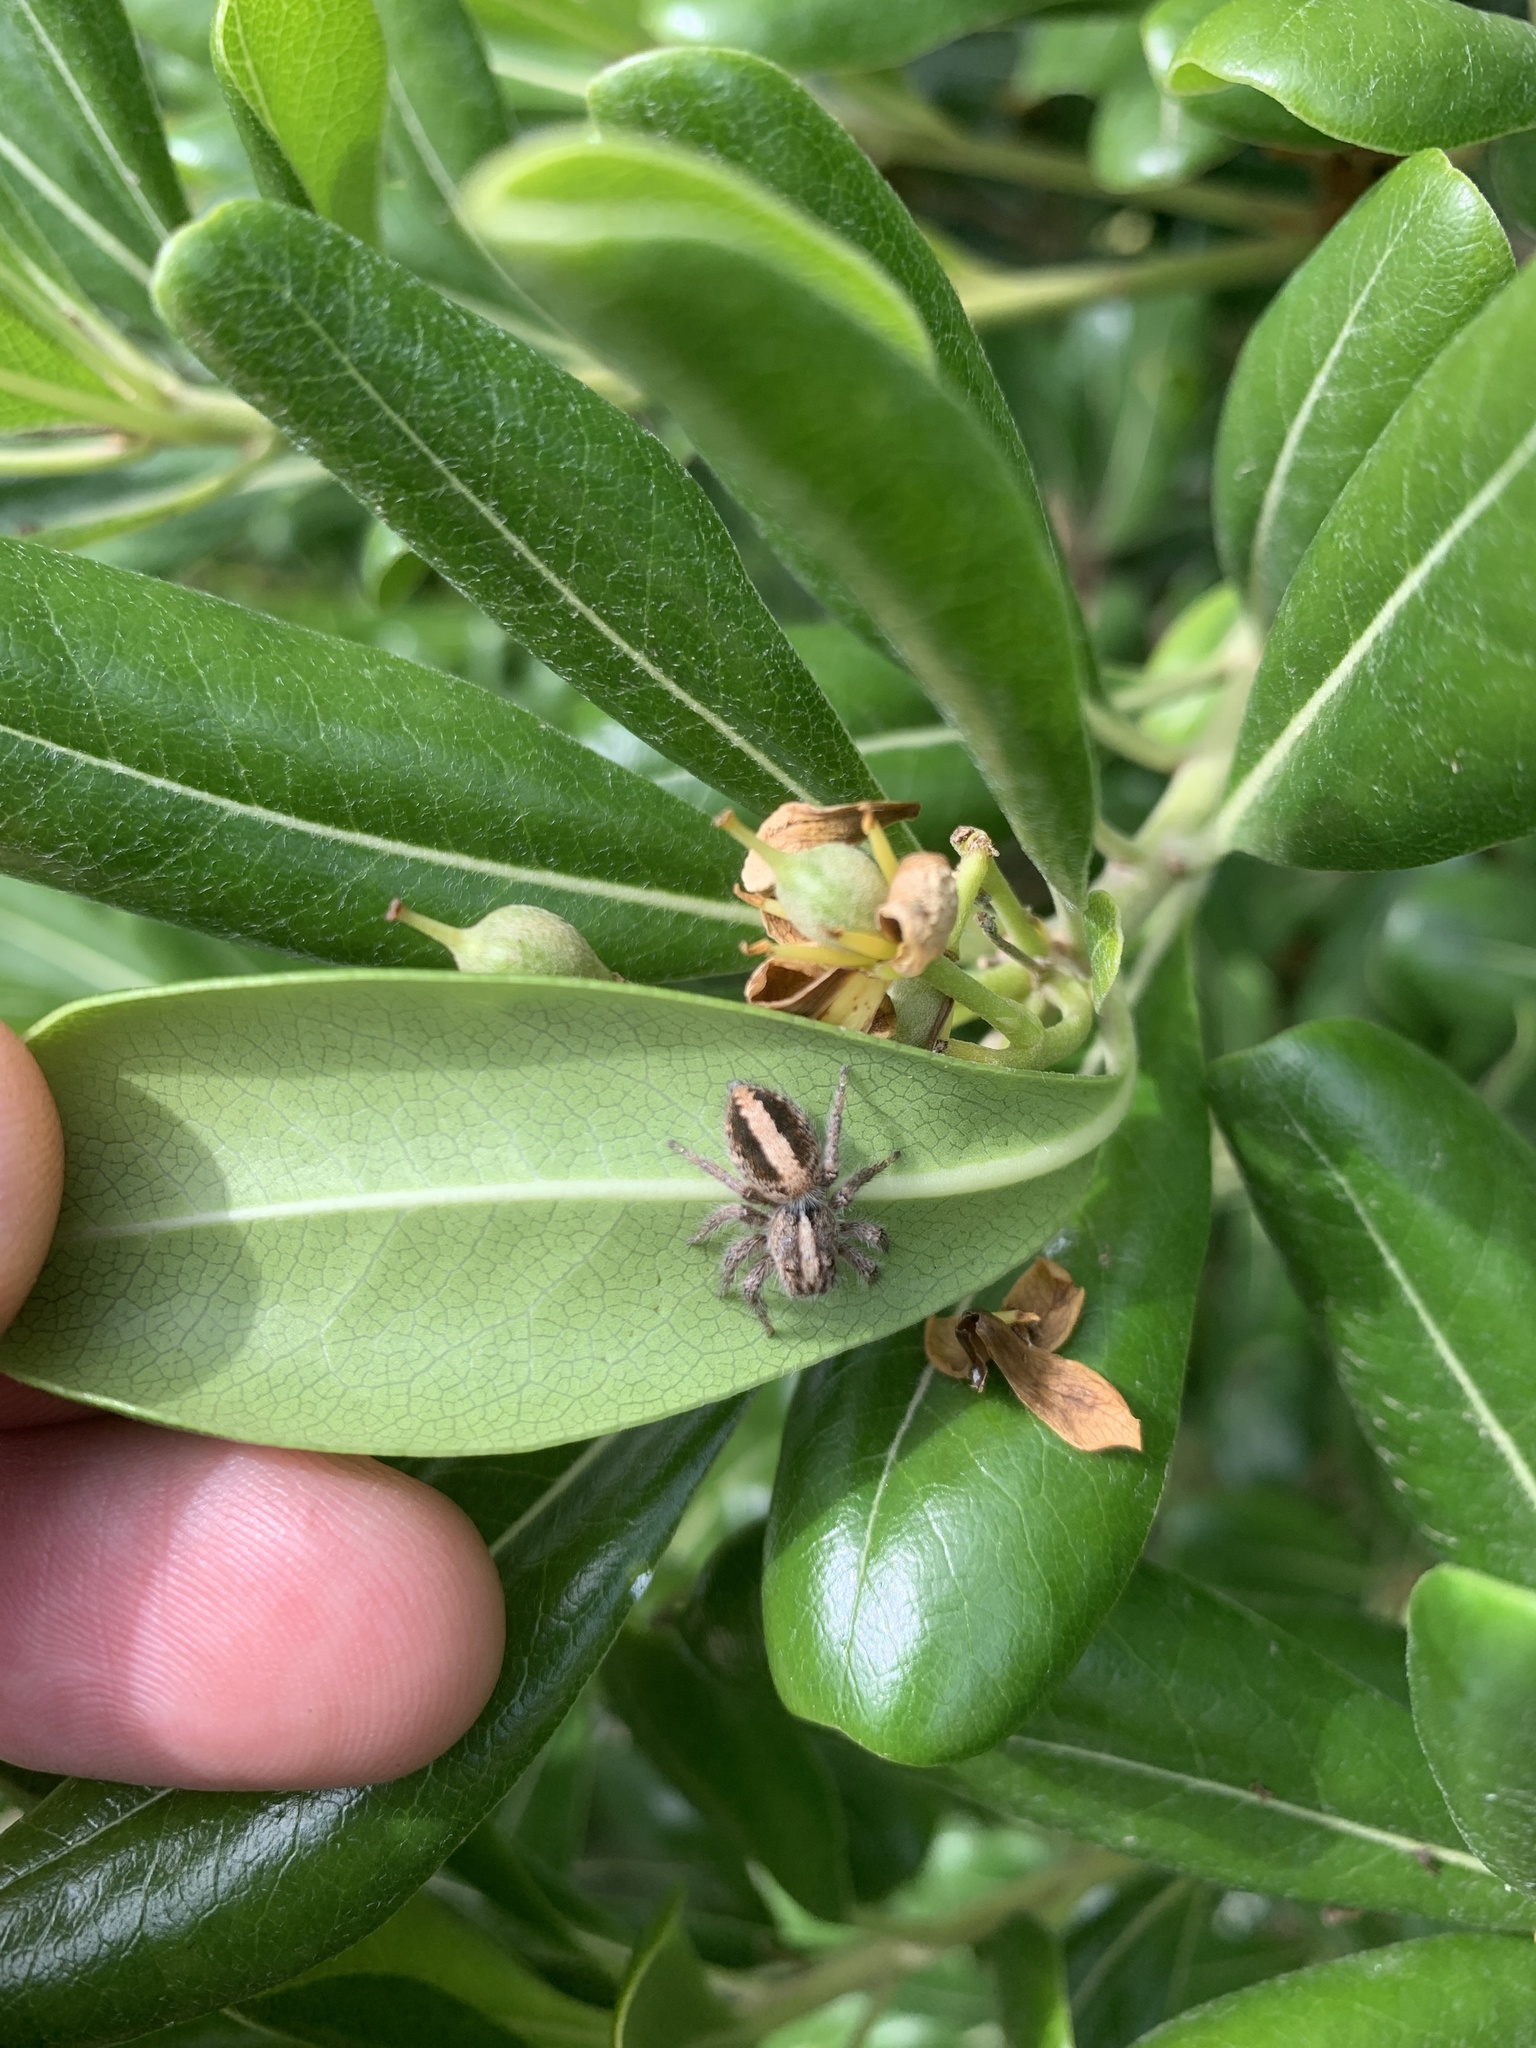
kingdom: Animalia
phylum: Arthropoda
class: Arachnida
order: Araneae
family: Salticidae
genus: Megafreya
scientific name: Megafreya sutrix
